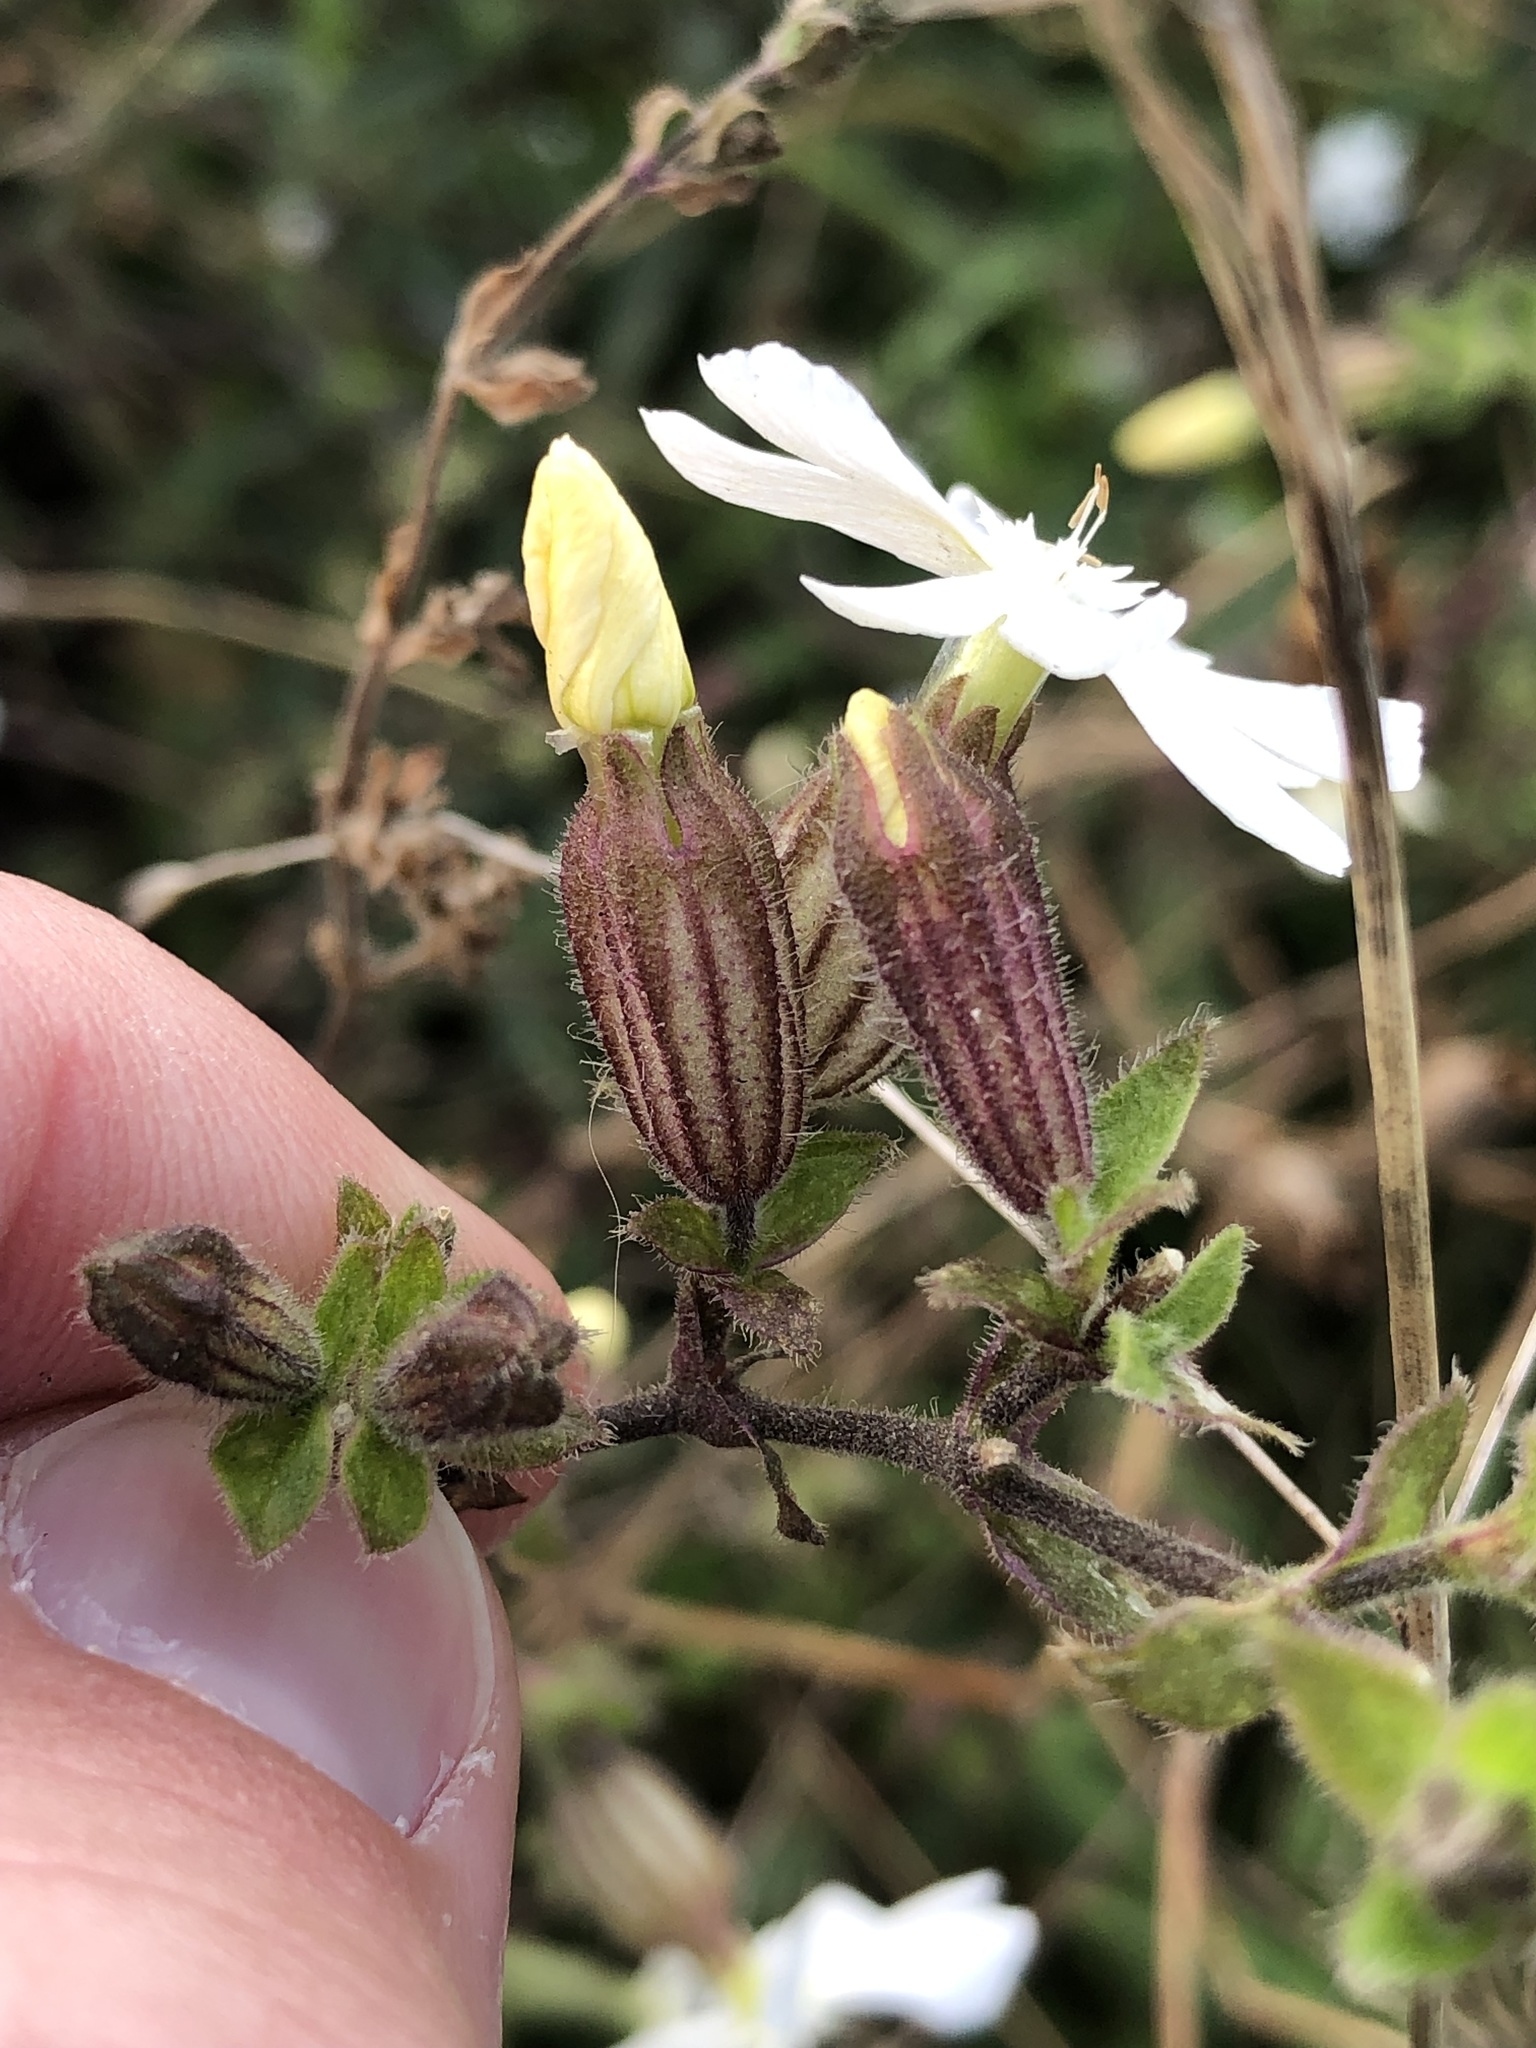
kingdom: Plantae
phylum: Tracheophyta
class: Magnoliopsida
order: Caryophyllales
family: Caryophyllaceae
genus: Silene
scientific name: Silene latifolia
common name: White campion
